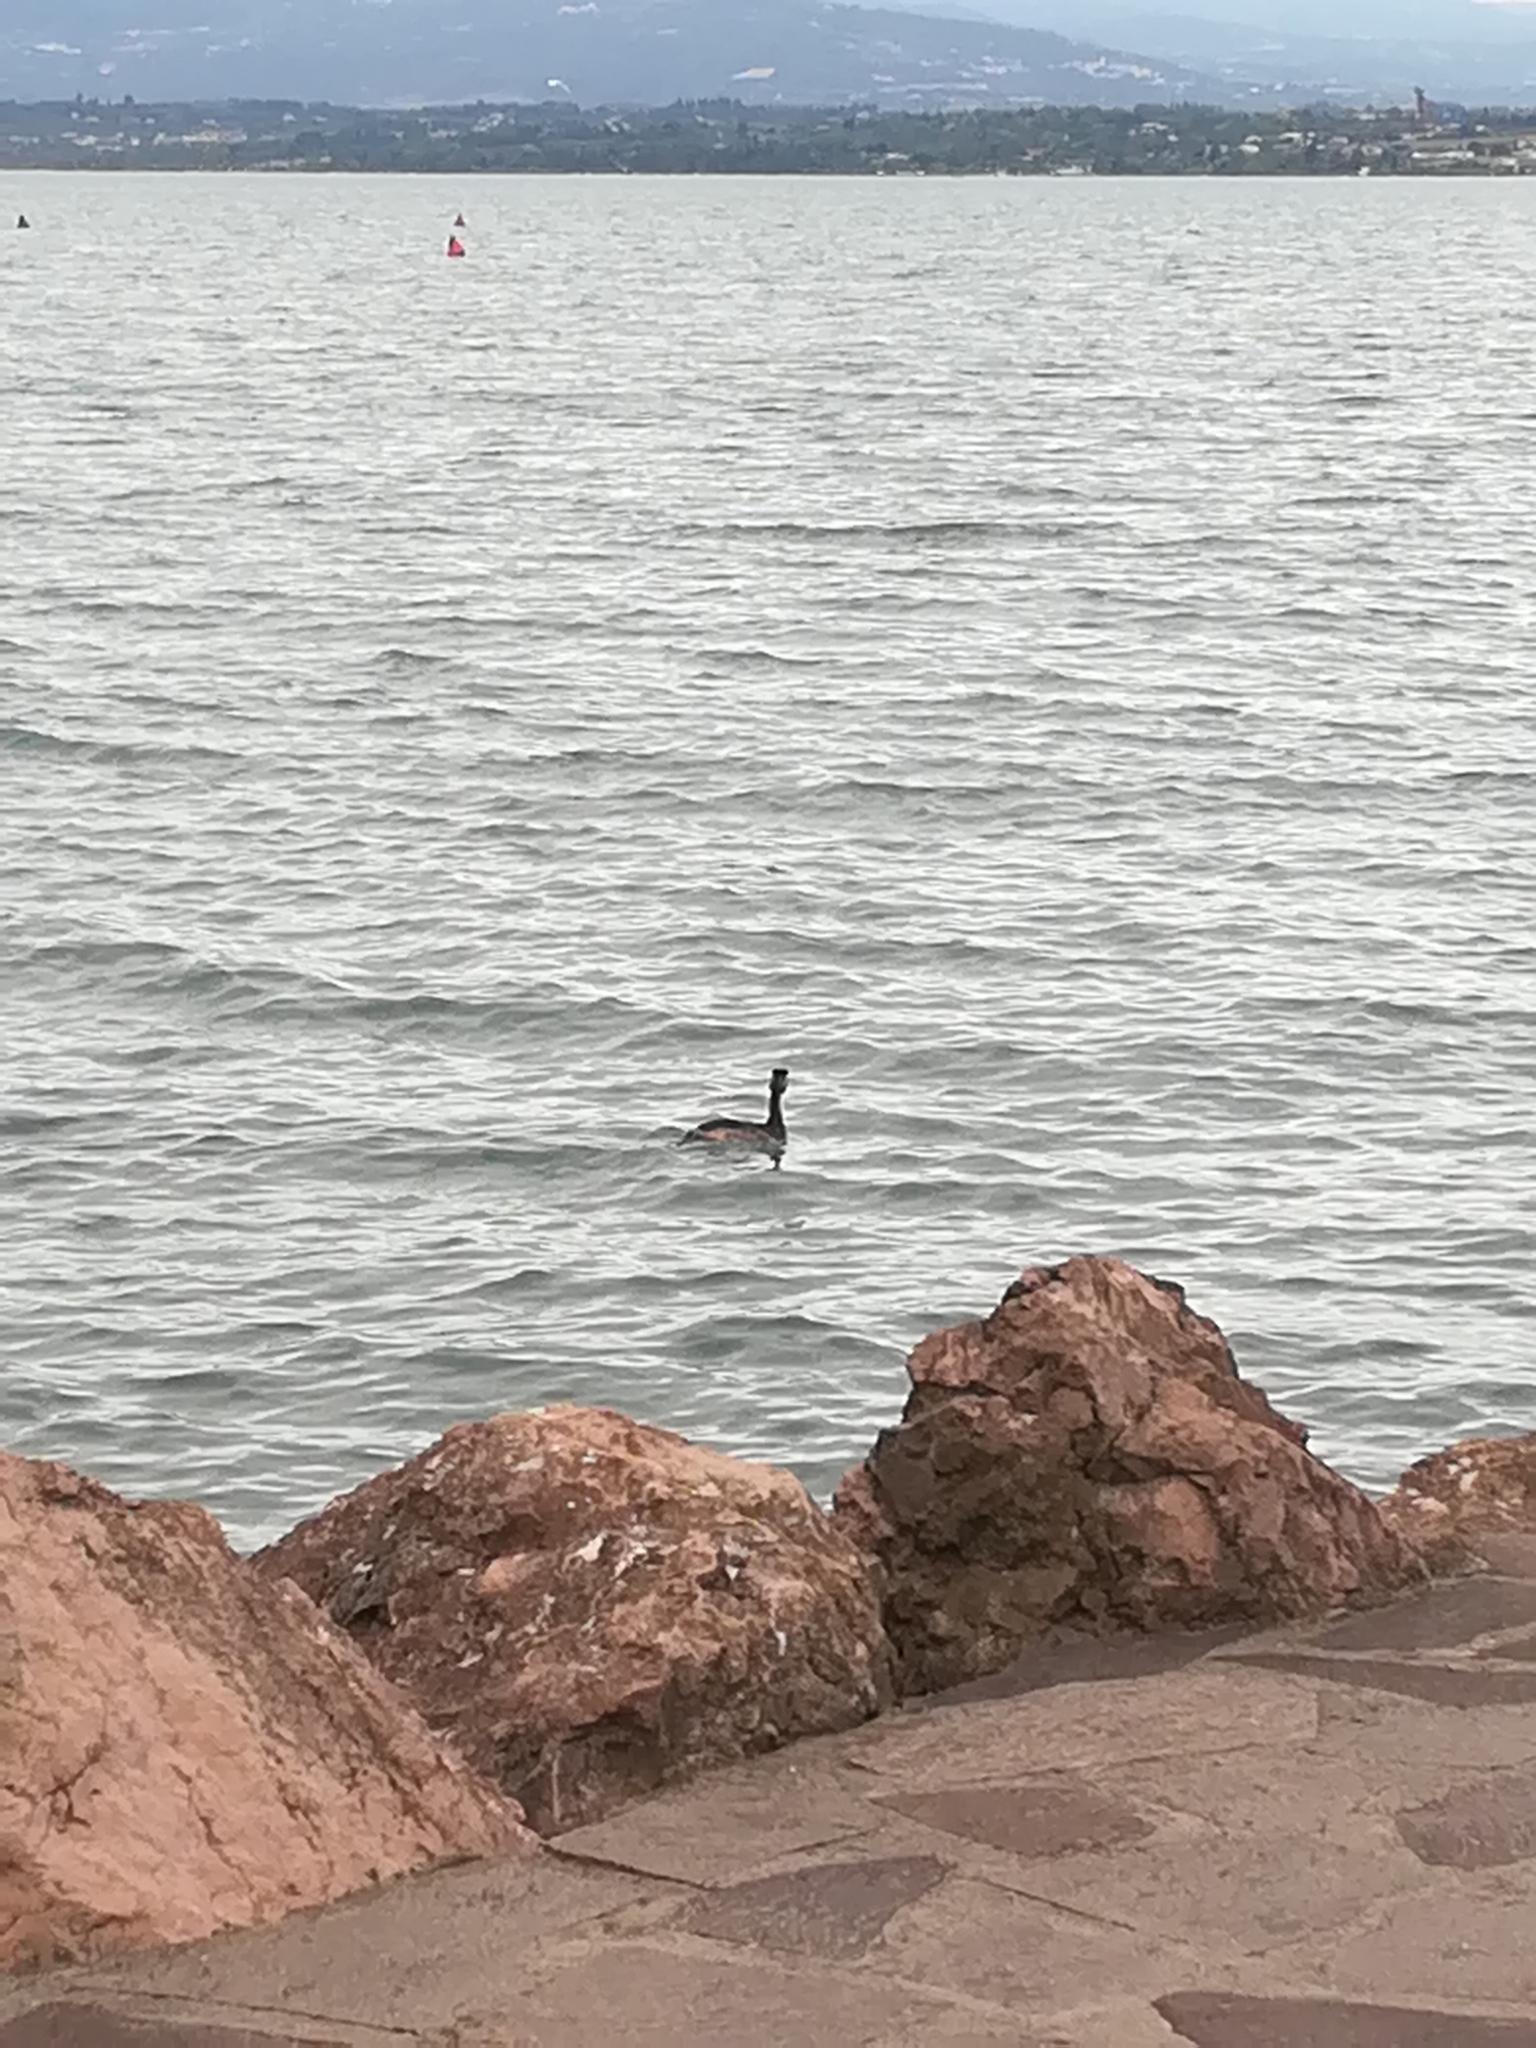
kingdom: Animalia
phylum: Chordata
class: Aves
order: Podicipediformes
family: Podicipedidae
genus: Podiceps
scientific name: Podiceps cristatus
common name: Great crested grebe
